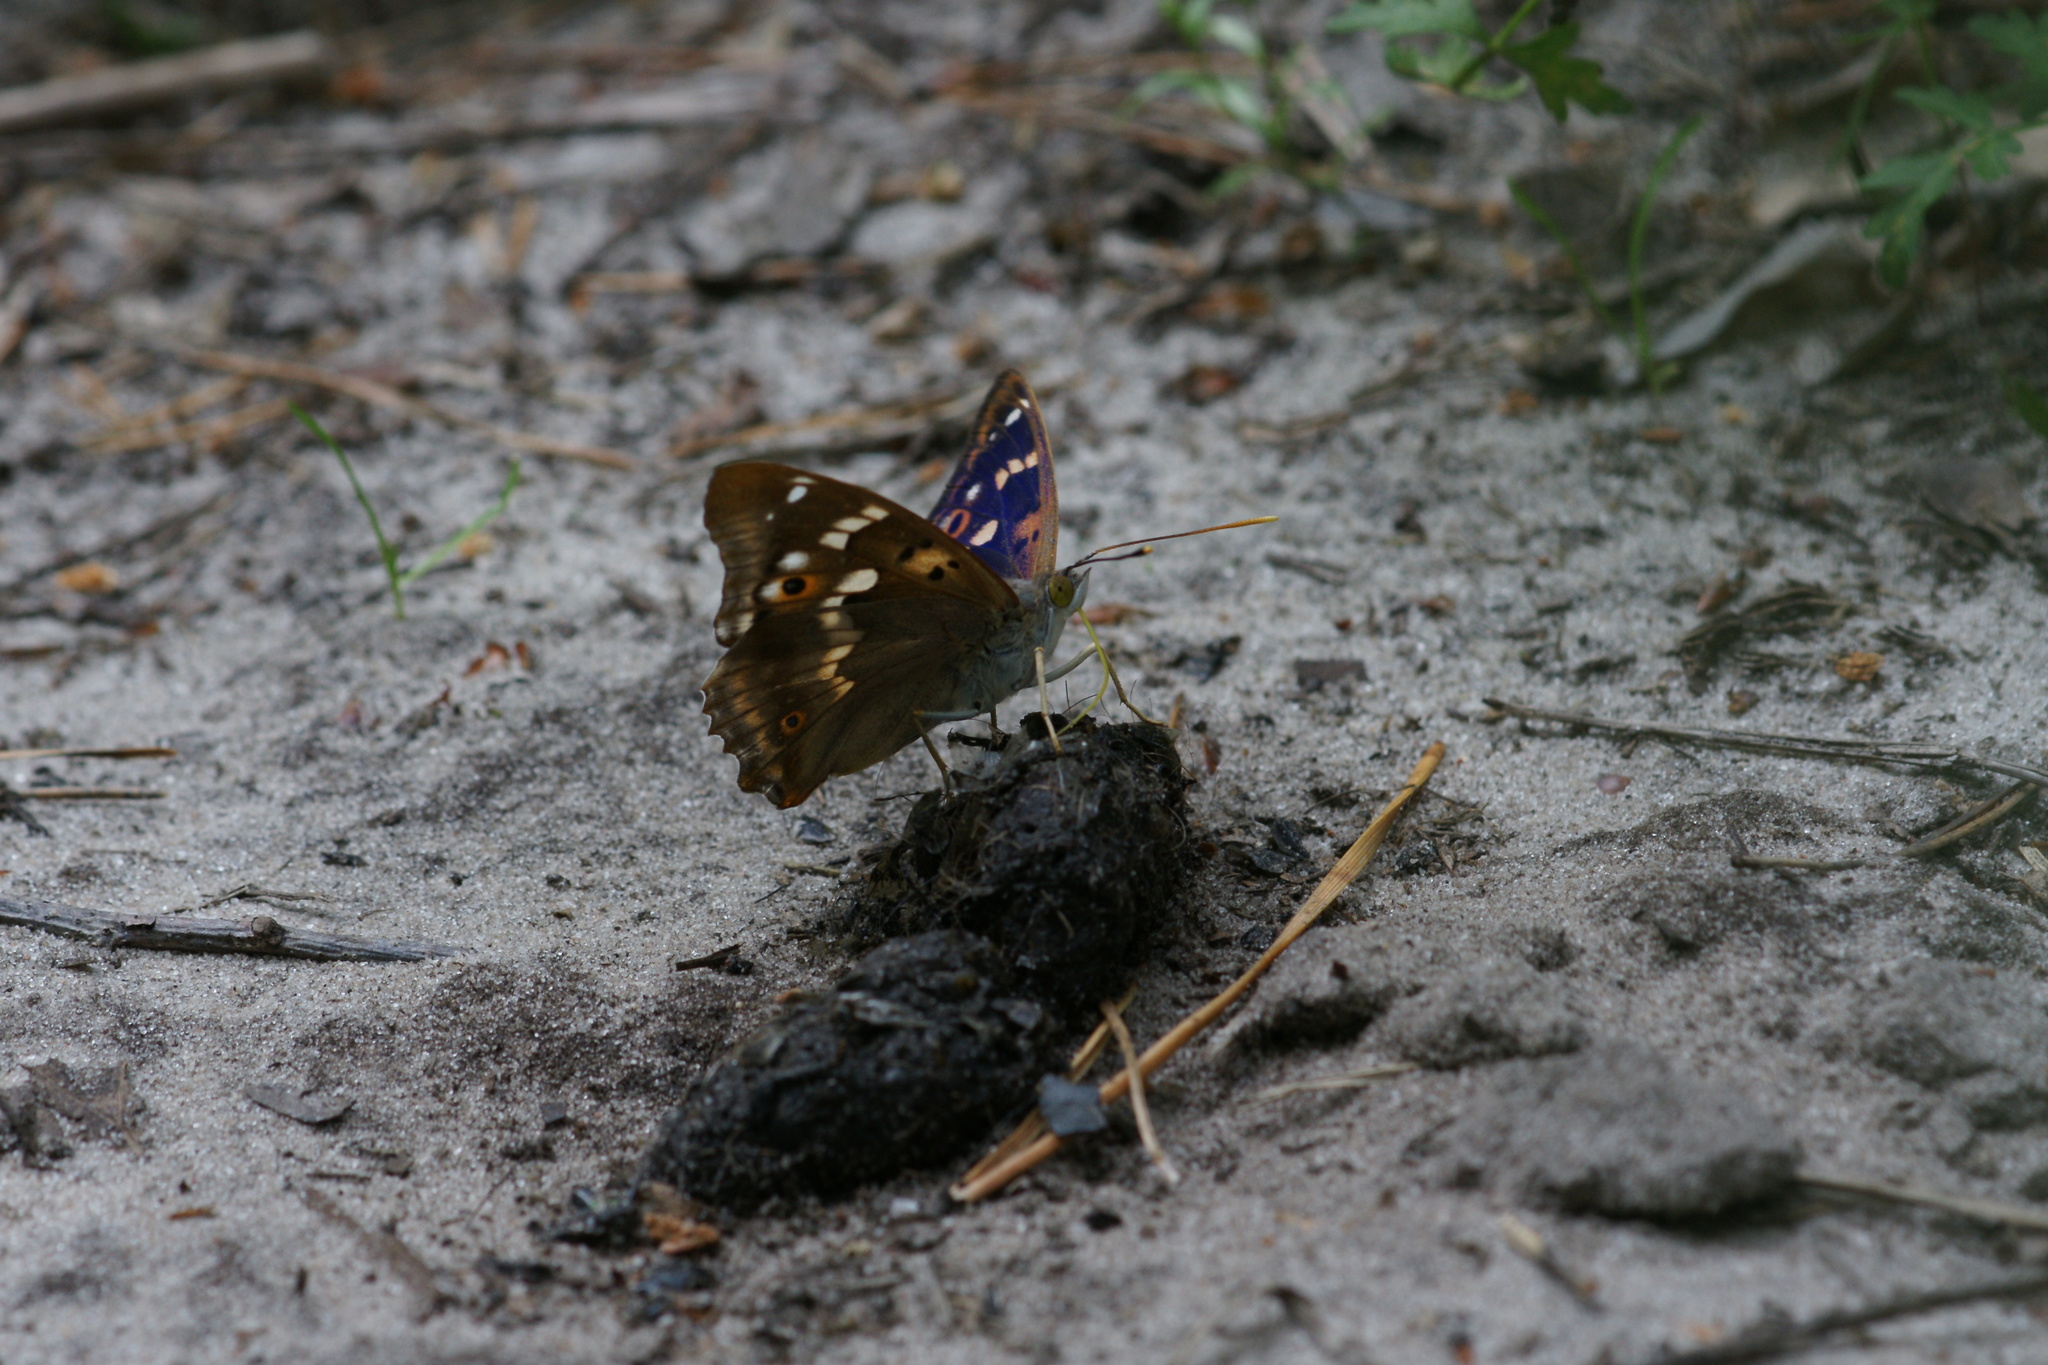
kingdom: Animalia
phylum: Arthropoda
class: Insecta
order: Lepidoptera
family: Nymphalidae
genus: Apatura
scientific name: Apatura ilia
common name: Lesser purple emperor
